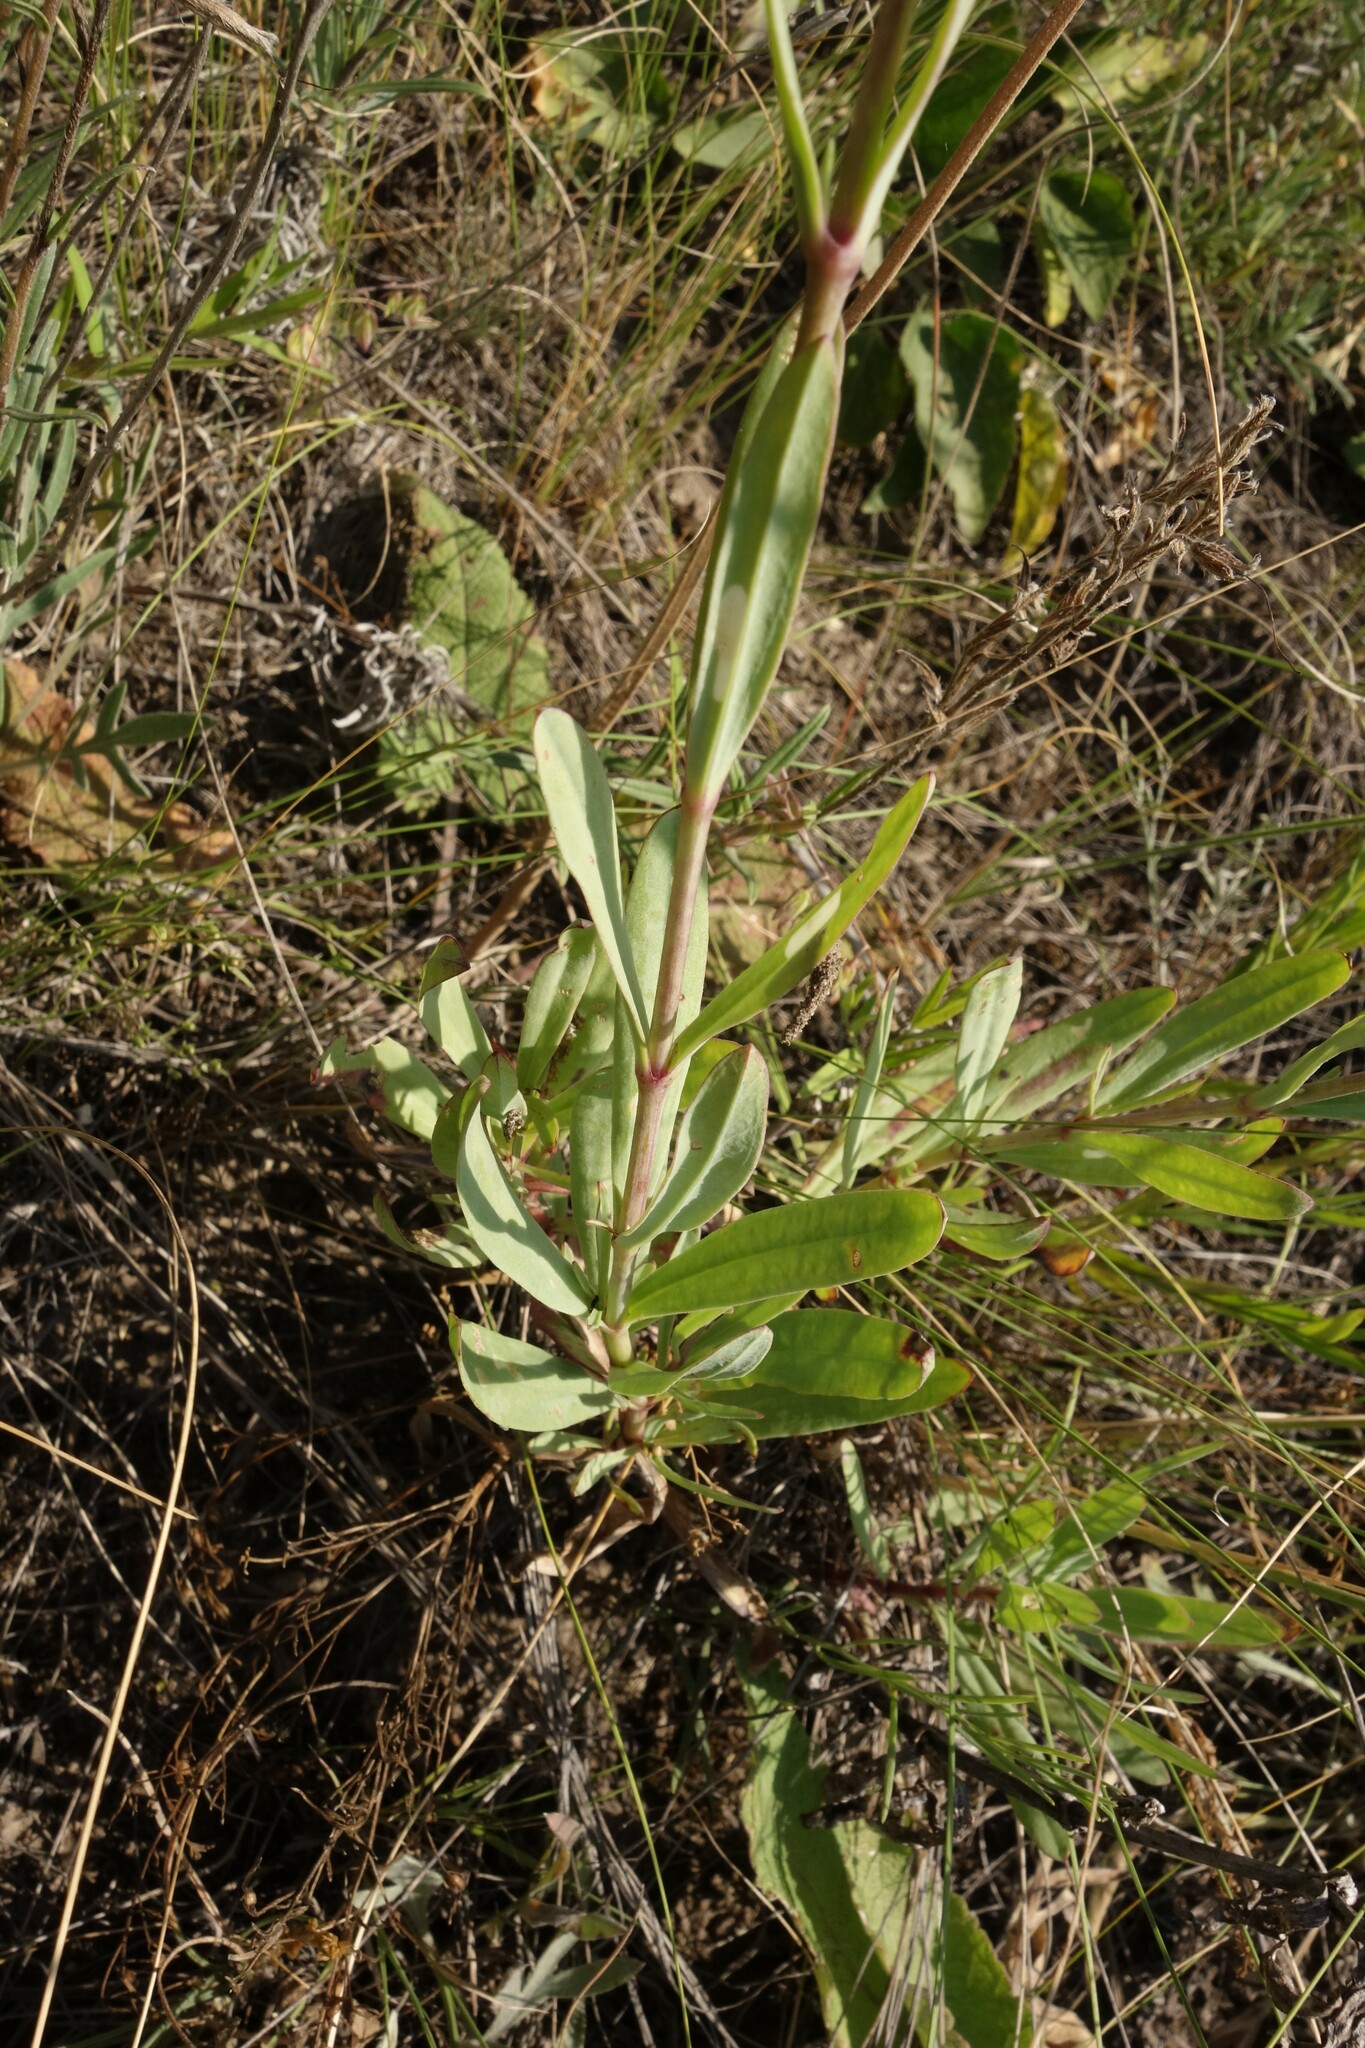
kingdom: Plantae
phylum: Tracheophyta
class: Magnoliopsida
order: Caryophyllales
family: Caryophyllaceae
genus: Gypsophila
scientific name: Gypsophila altissima
